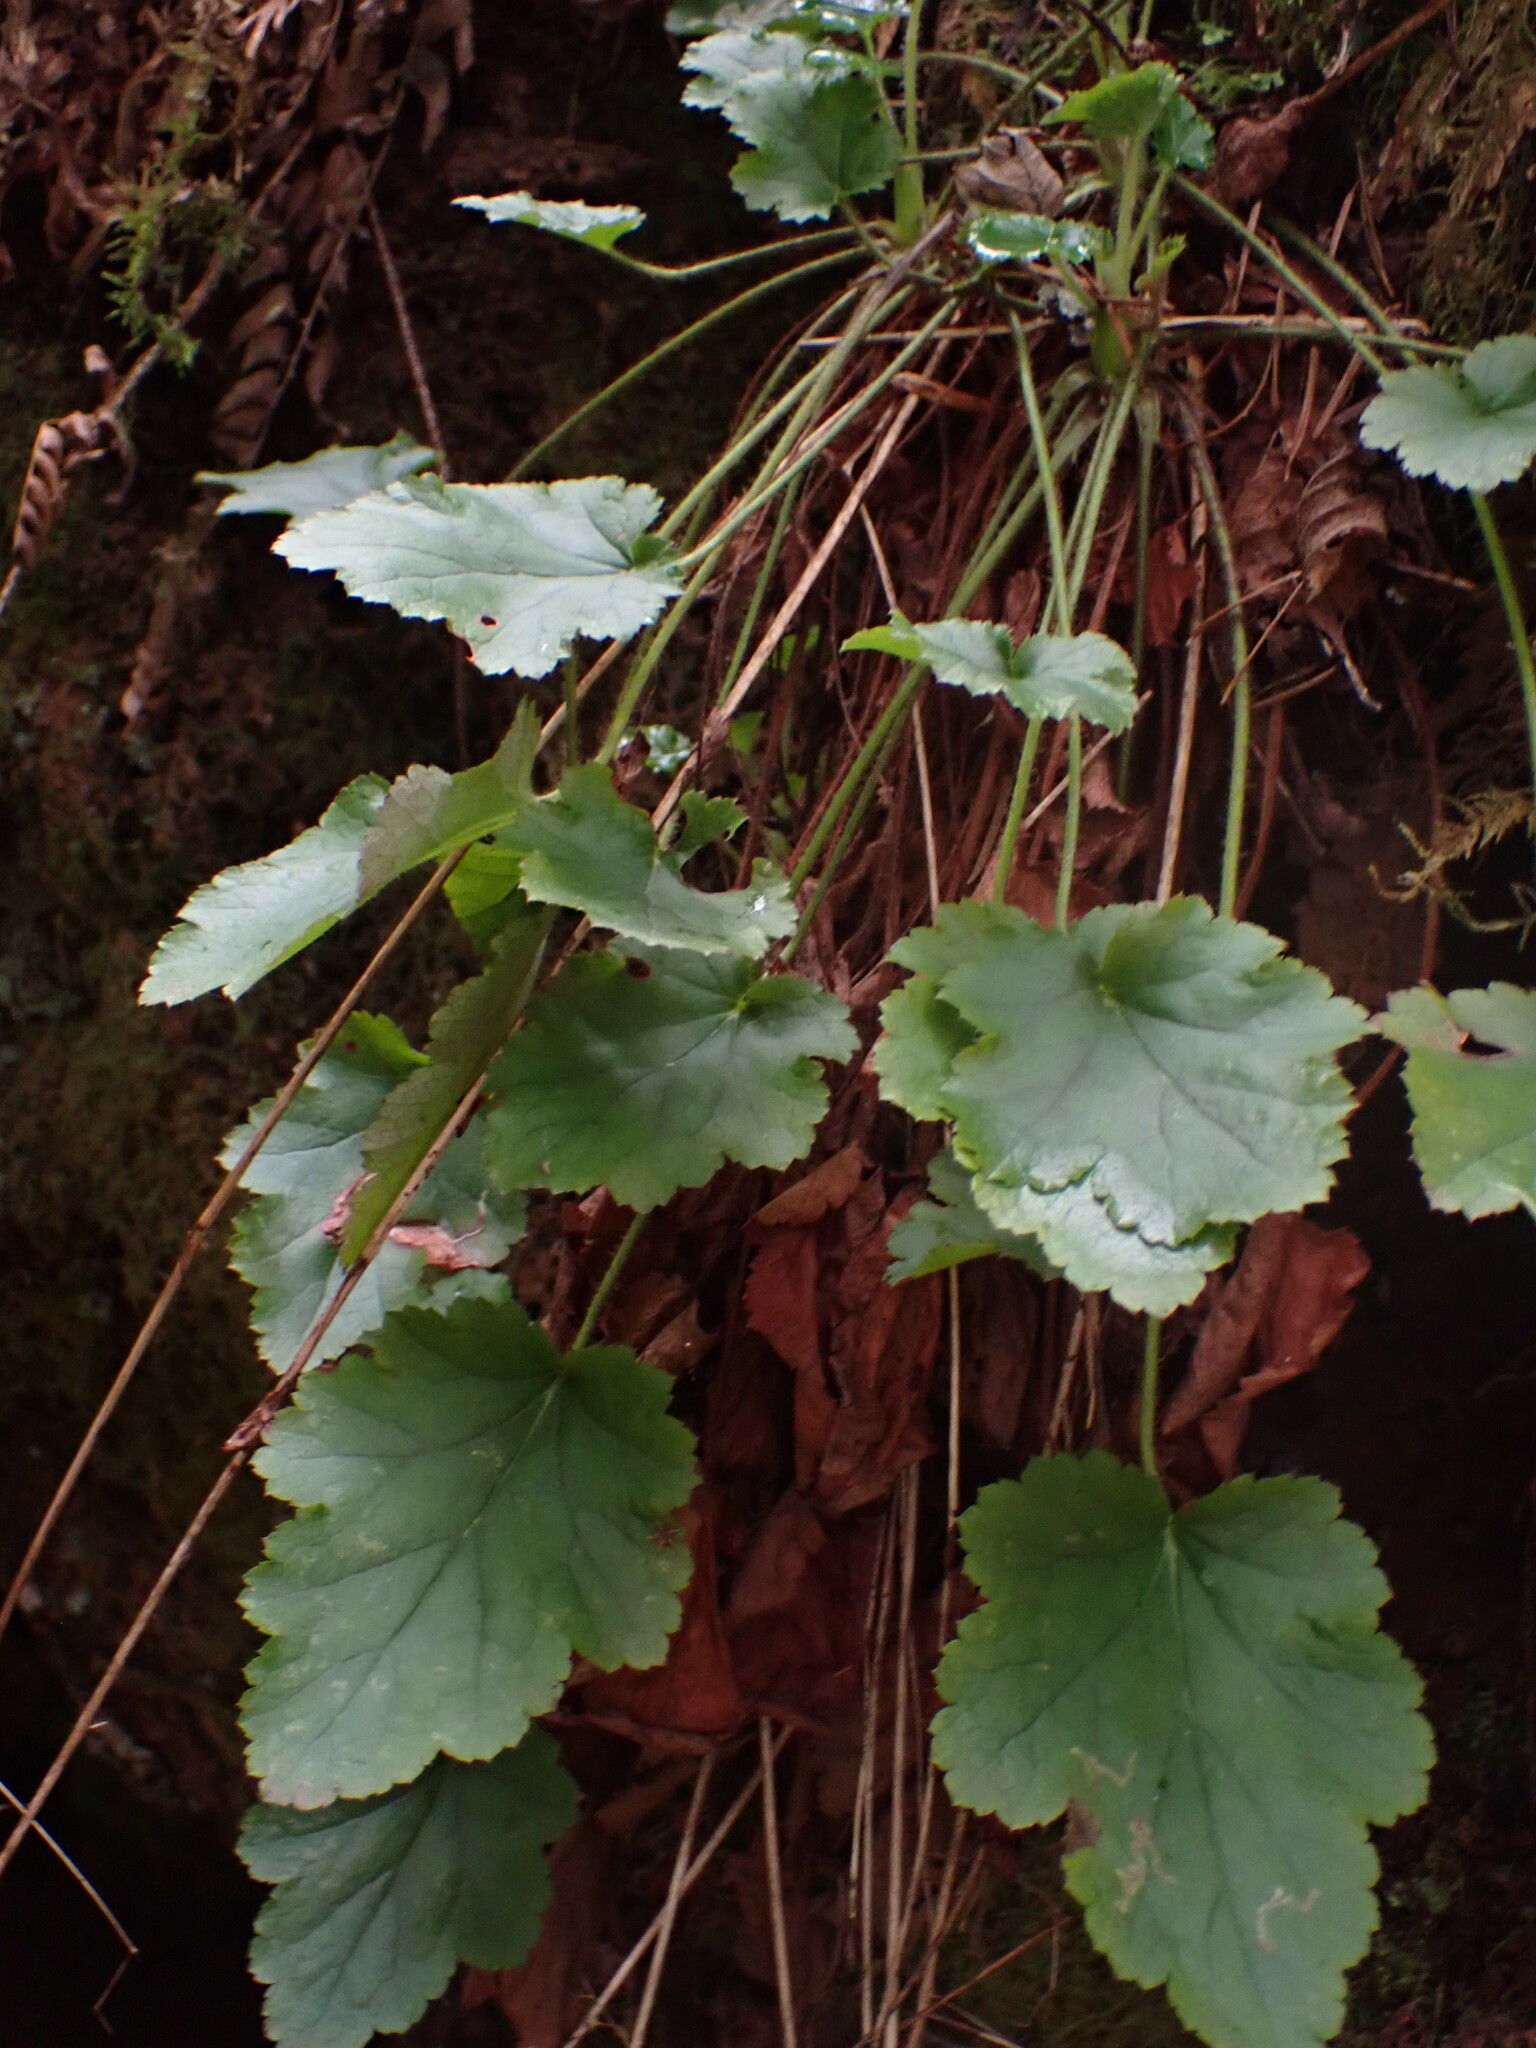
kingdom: Plantae
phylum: Tracheophyta
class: Magnoliopsida
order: Saxifragales
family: Saxifragaceae
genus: Heuchera
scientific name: Heuchera micrantha
